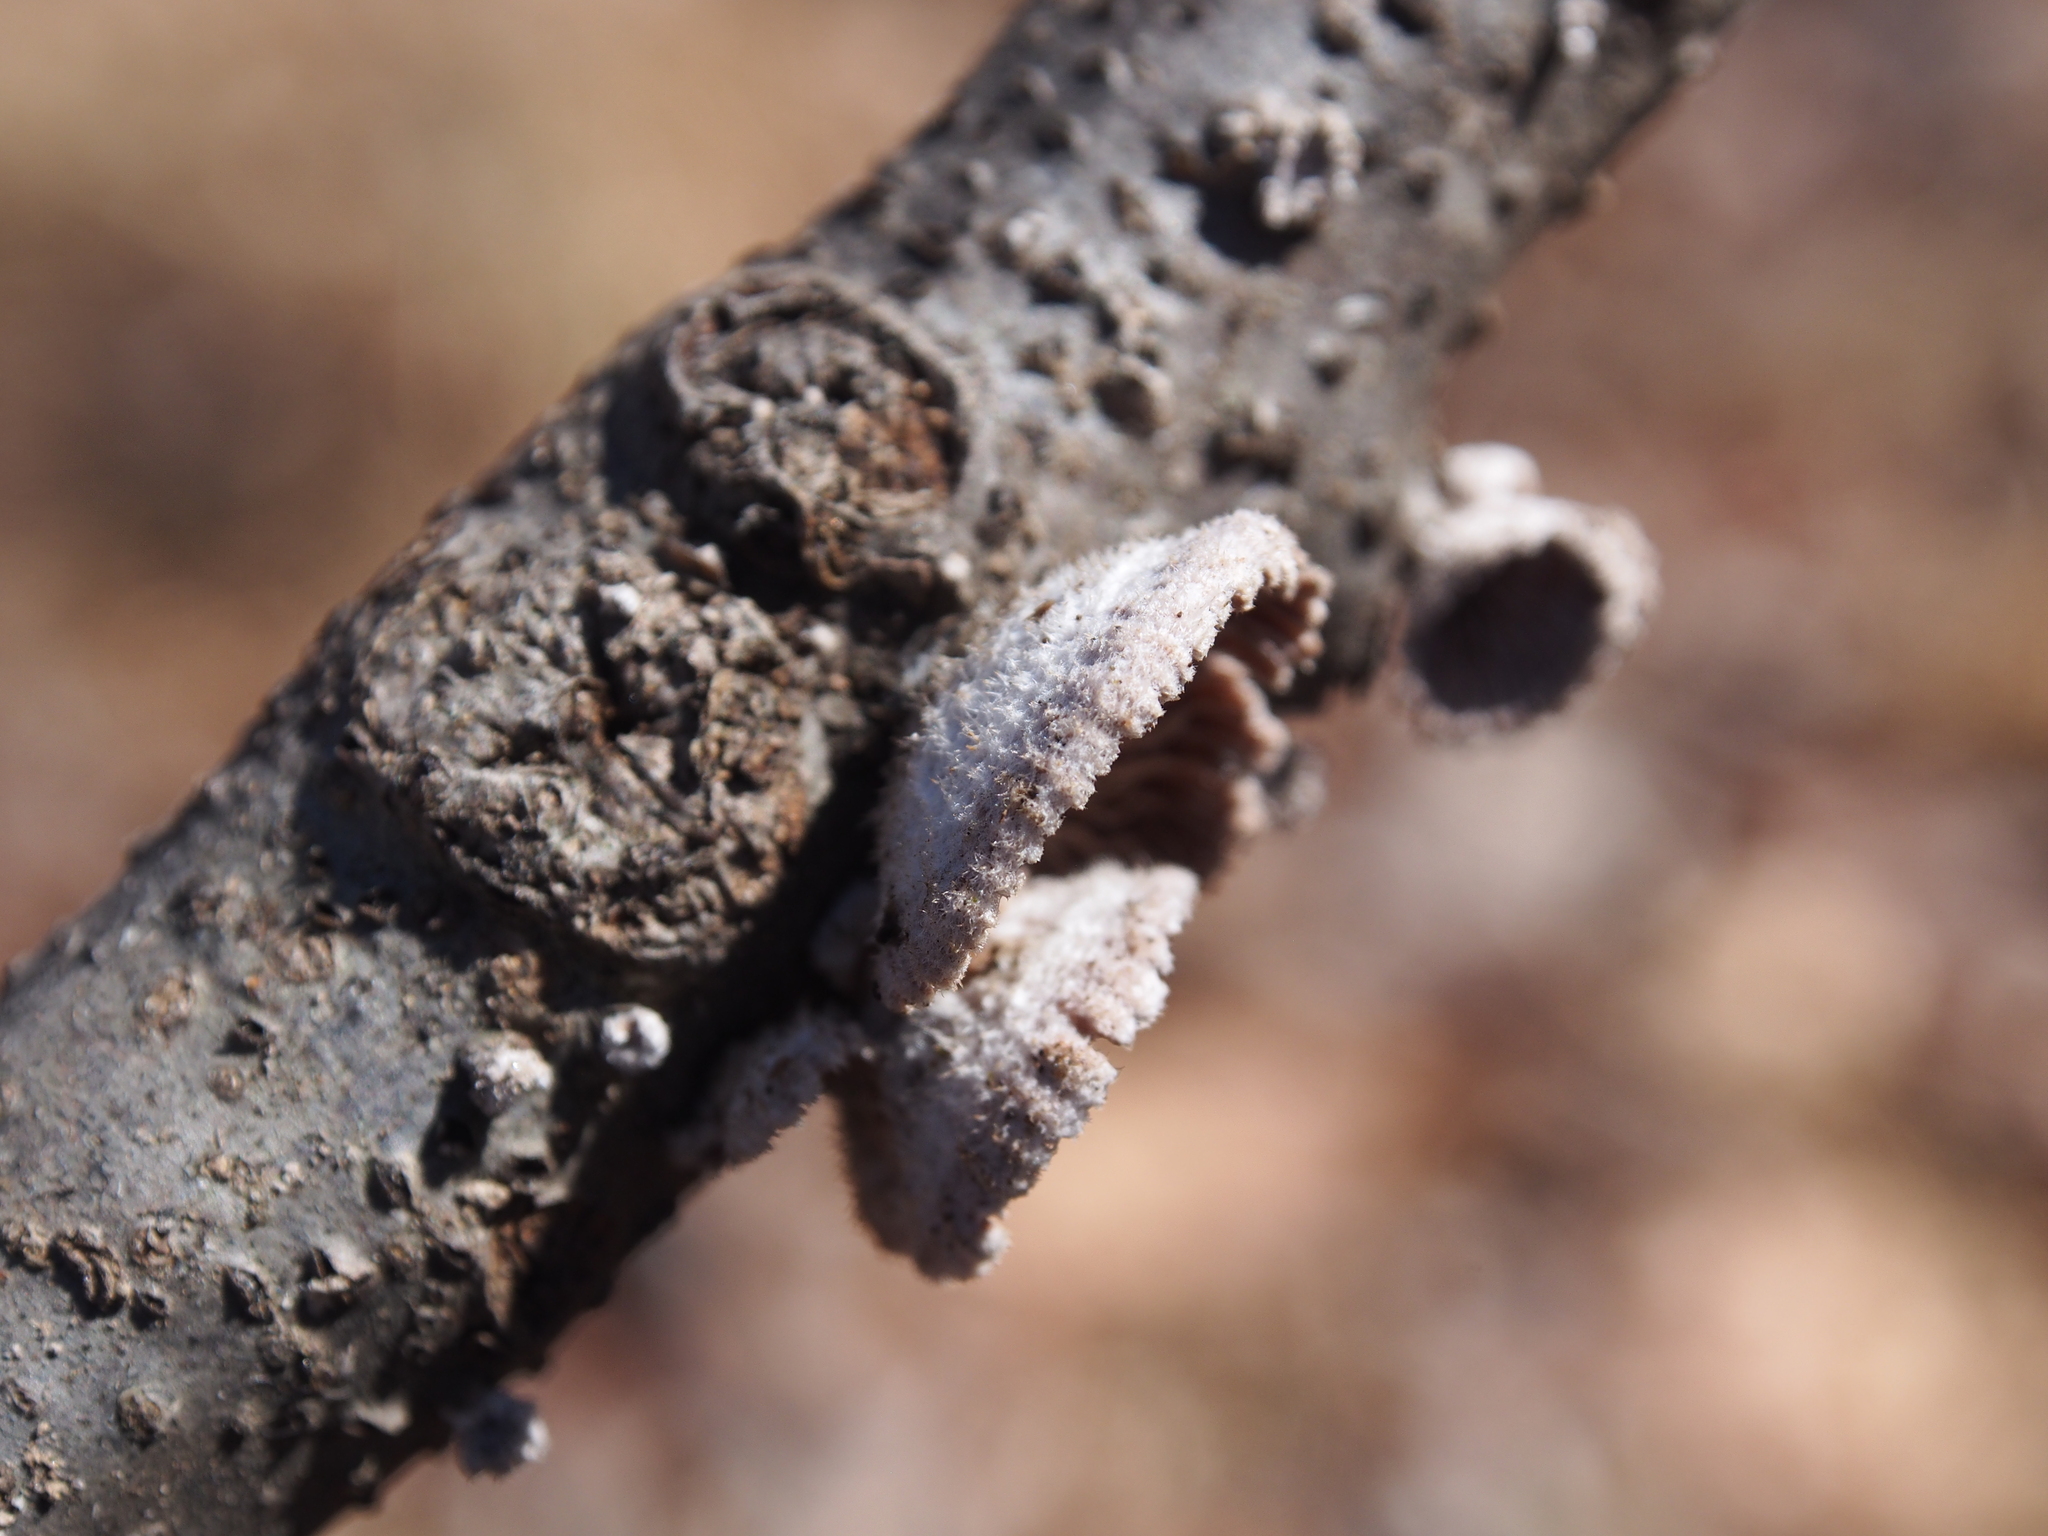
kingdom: Fungi
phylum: Basidiomycota
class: Agaricomycetes
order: Agaricales
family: Schizophyllaceae
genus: Schizophyllum
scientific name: Schizophyllum commune
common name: Common porecrust
